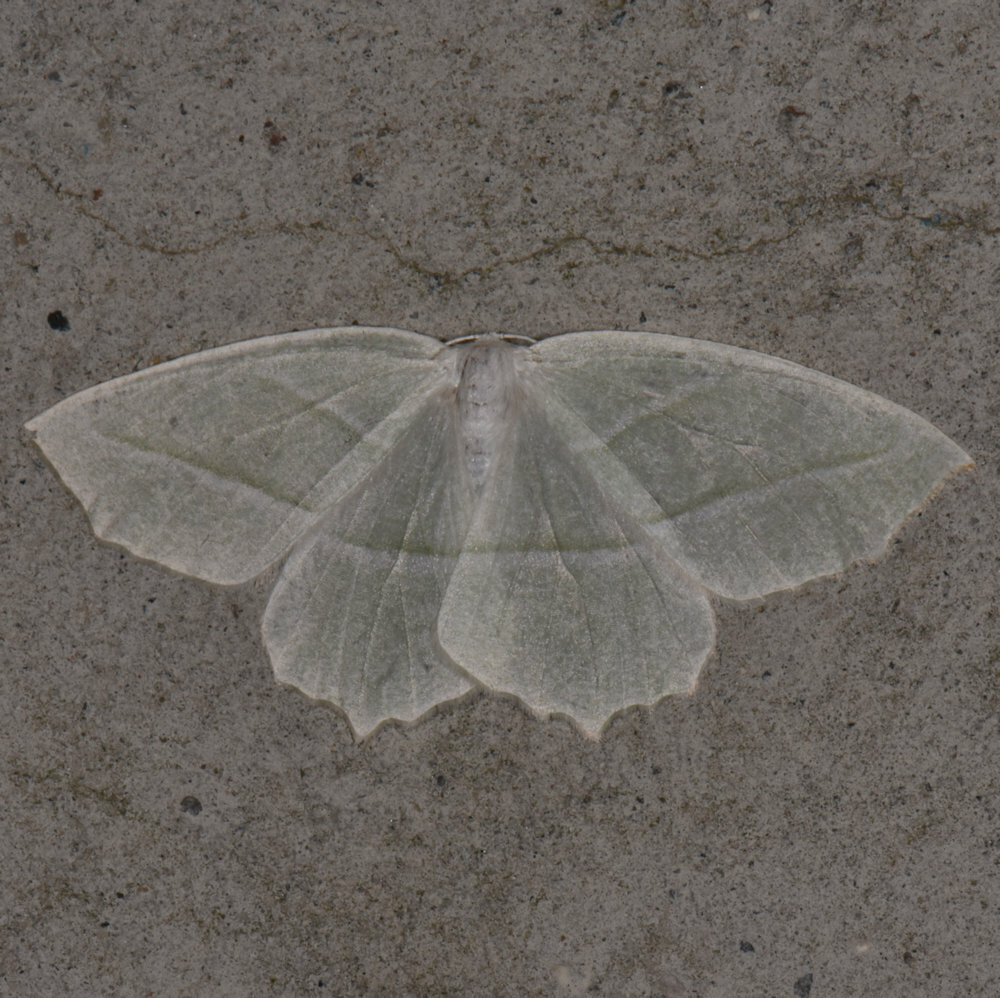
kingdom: Animalia
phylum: Arthropoda
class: Insecta
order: Lepidoptera
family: Geometridae
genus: Campaea
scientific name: Campaea perlata
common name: Fringed looper
